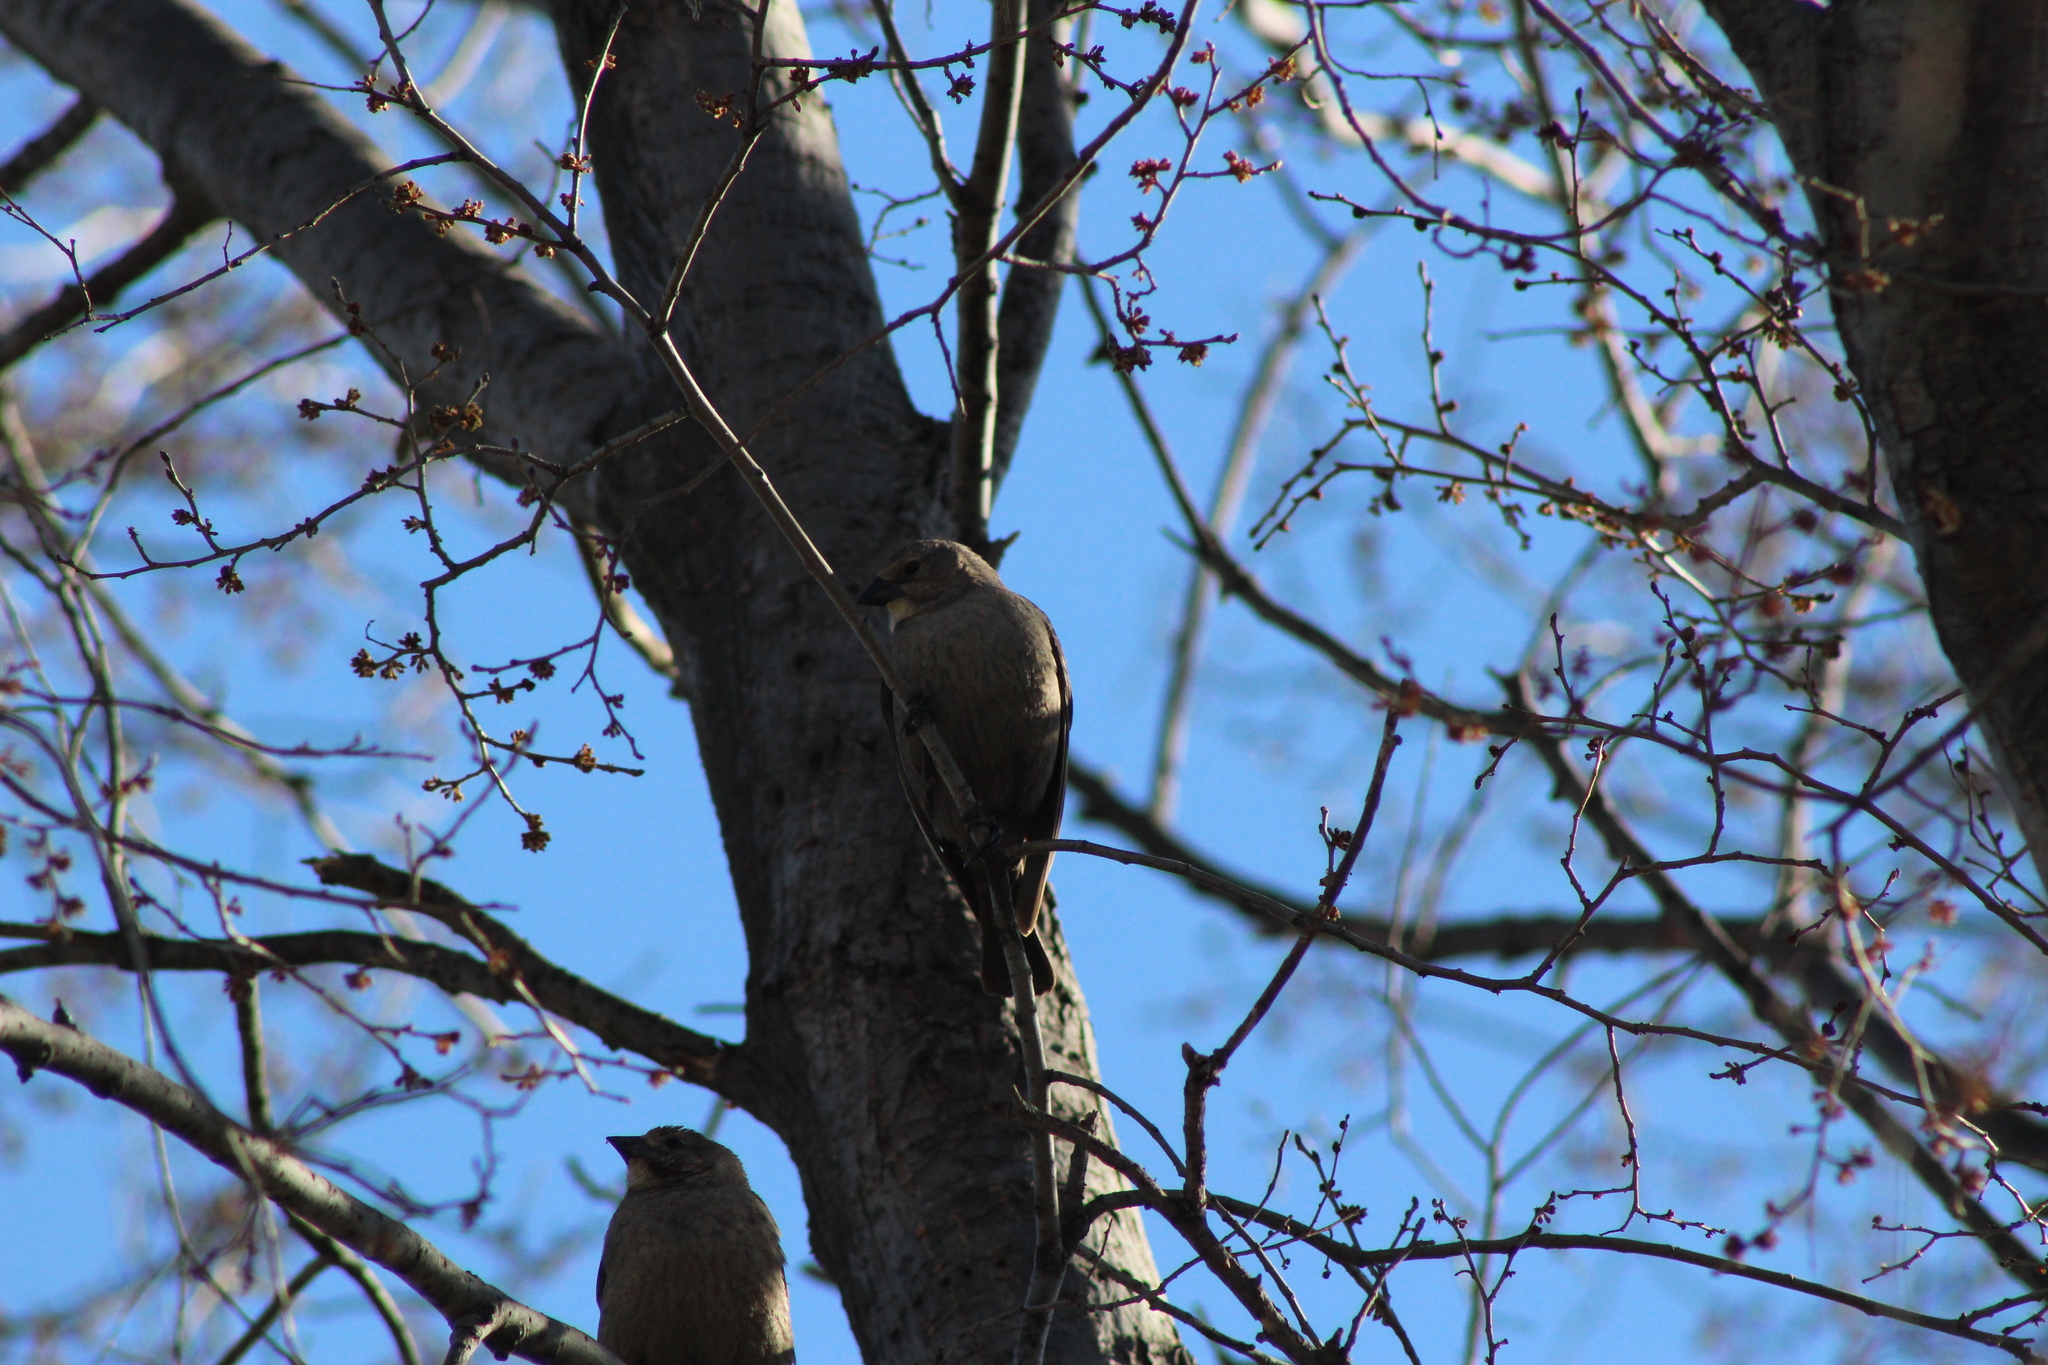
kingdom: Animalia
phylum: Chordata
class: Aves
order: Passeriformes
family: Icteridae
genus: Molothrus
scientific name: Molothrus ater
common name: Brown-headed cowbird
